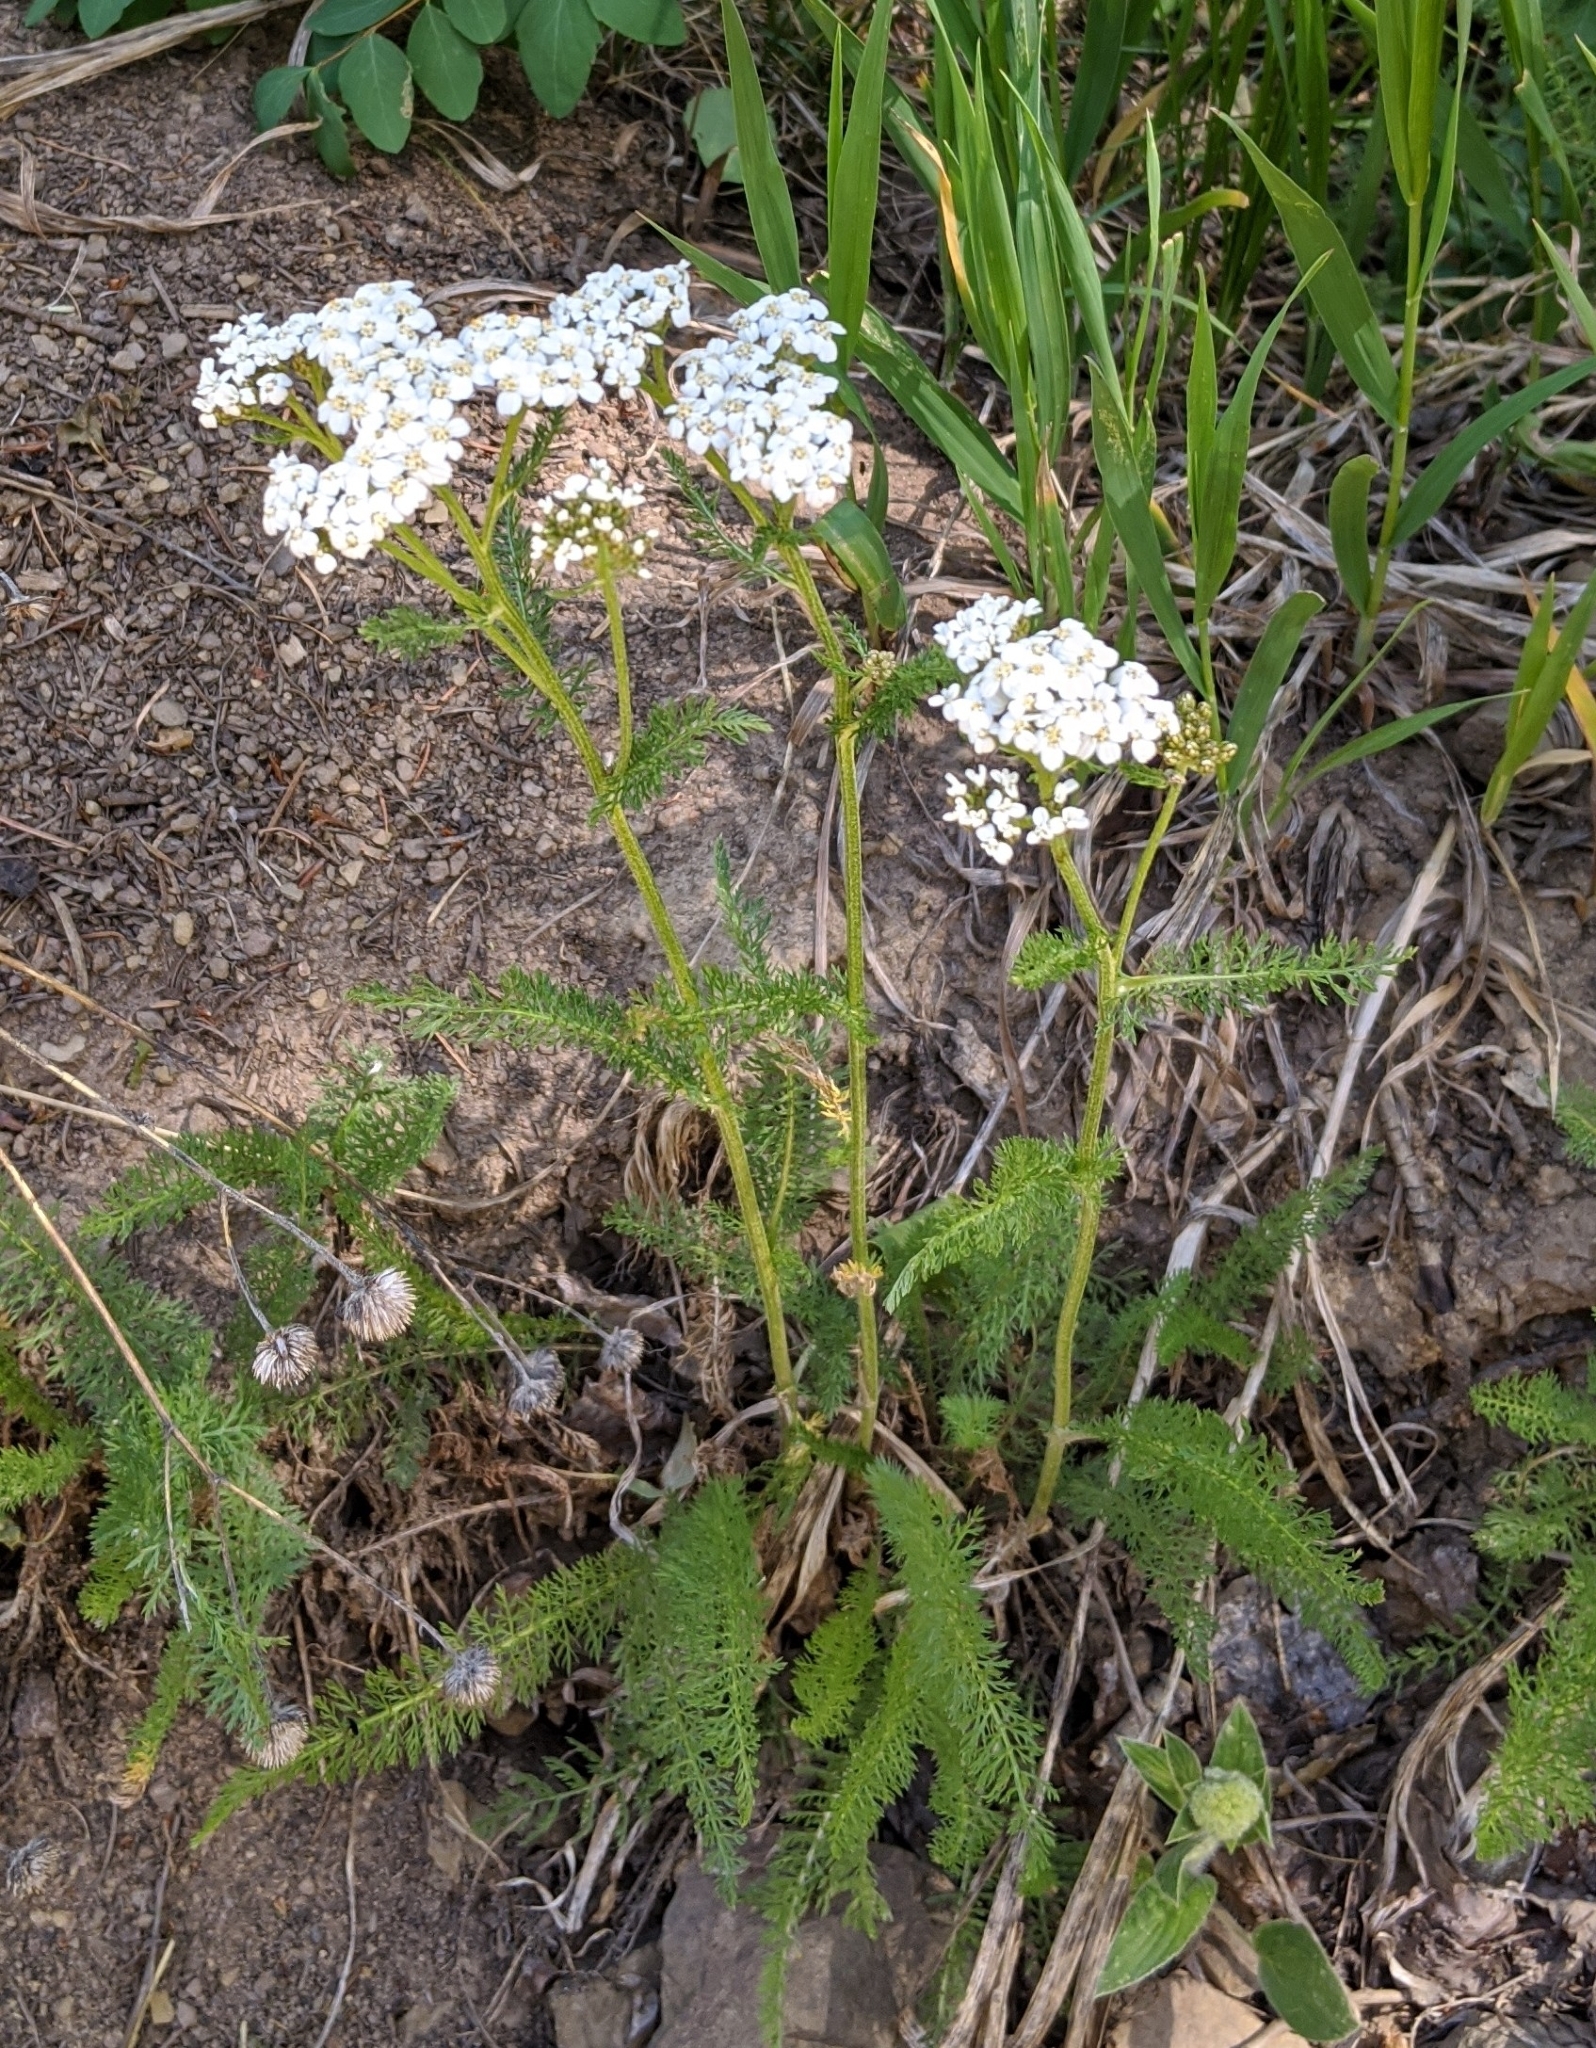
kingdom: Plantae
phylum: Tracheophyta
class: Magnoliopsida
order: Asterales
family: Asteraceae
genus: Achillea
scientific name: Achillea millefolium
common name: Yarrow
